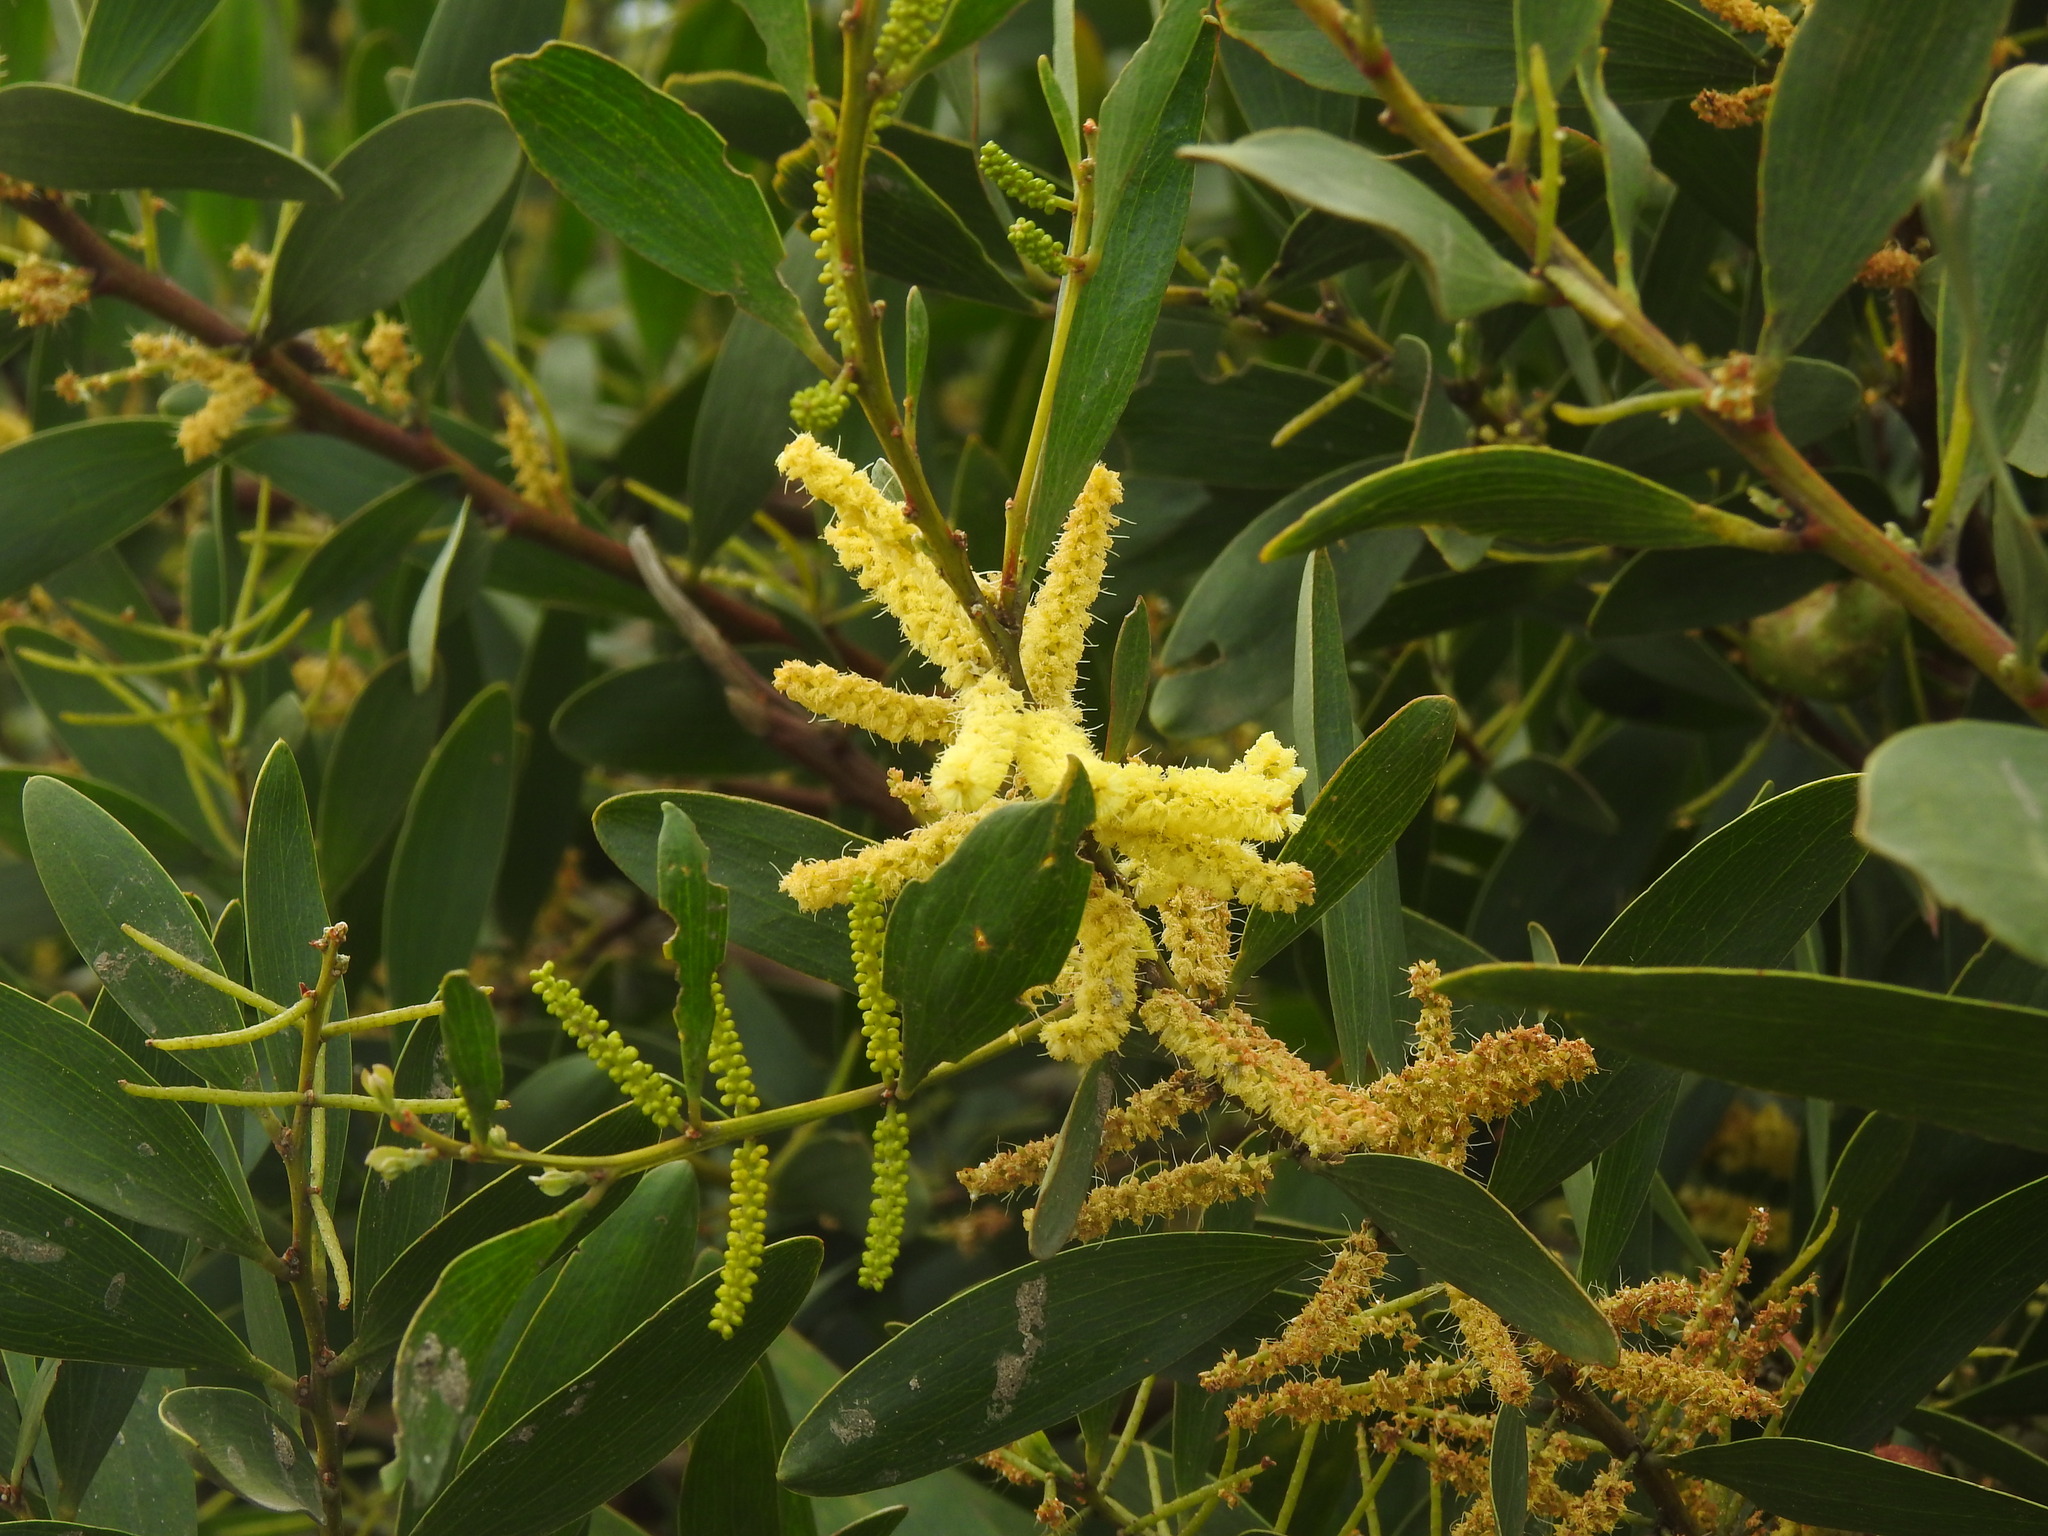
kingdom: Plantae
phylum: Tracheophyta
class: Magnoliopsida
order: Fabales
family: Fabaceae
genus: Acacia
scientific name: Acacia longifolia
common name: Sydney golden wattle
